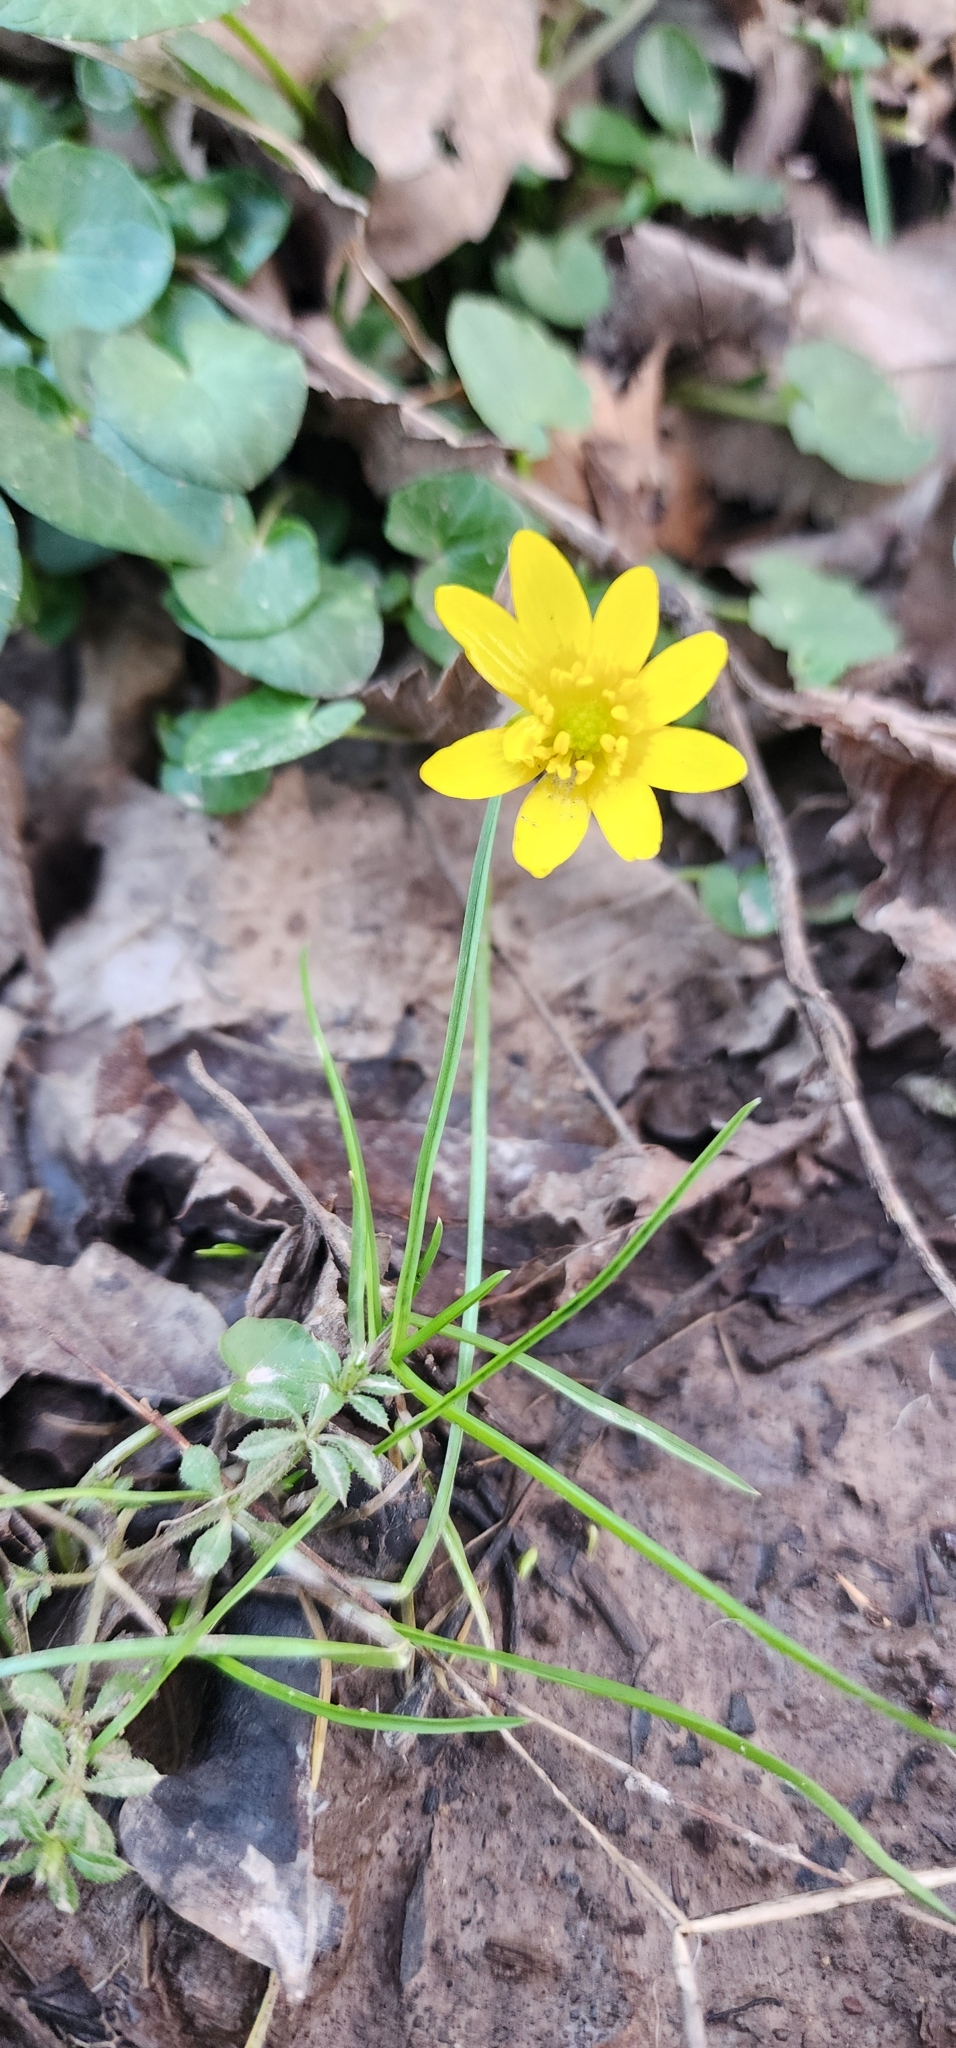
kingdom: Plantae
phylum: Tracheophyta
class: Magnoliopsida
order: Ranunculales
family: Ranunculaceae
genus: Ficaria
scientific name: Ficaria verna
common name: Lesser celandine
